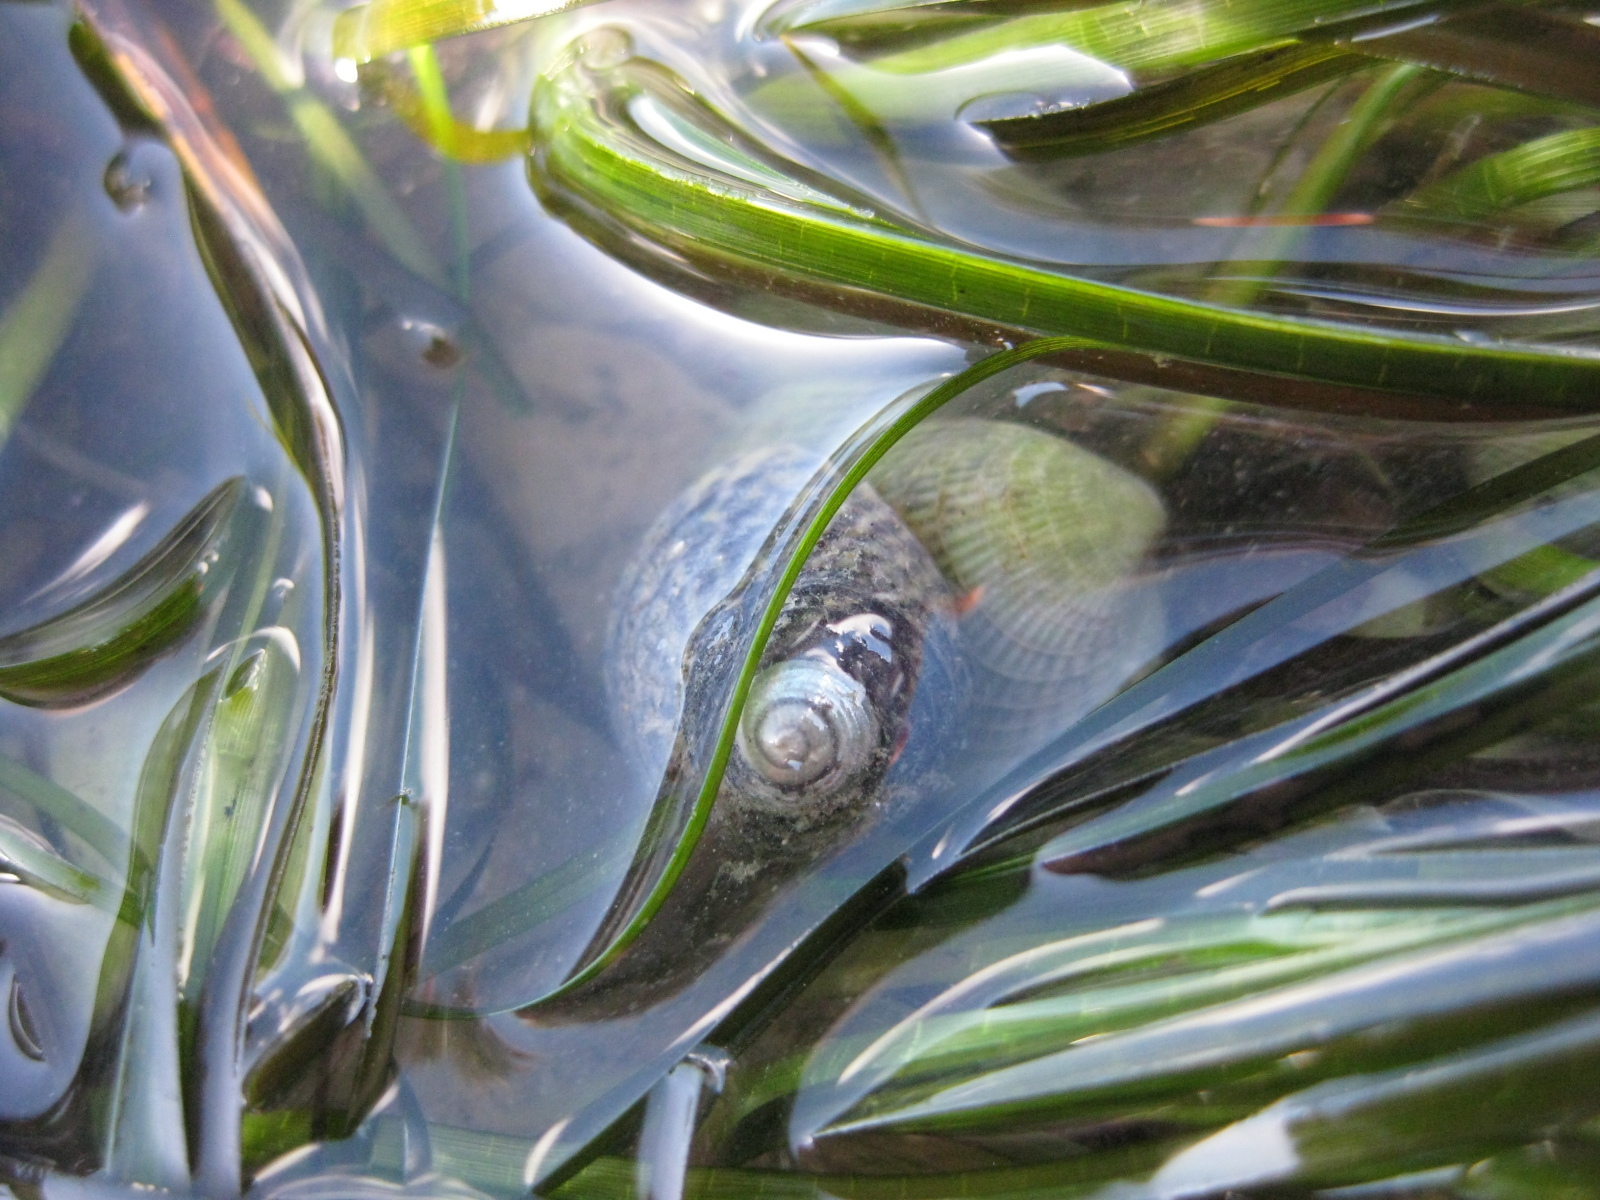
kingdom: Animalia
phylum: Mollusca
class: Gastropoda
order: Trochida
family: Trochidae
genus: Diloma
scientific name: Diloma subrostratum
